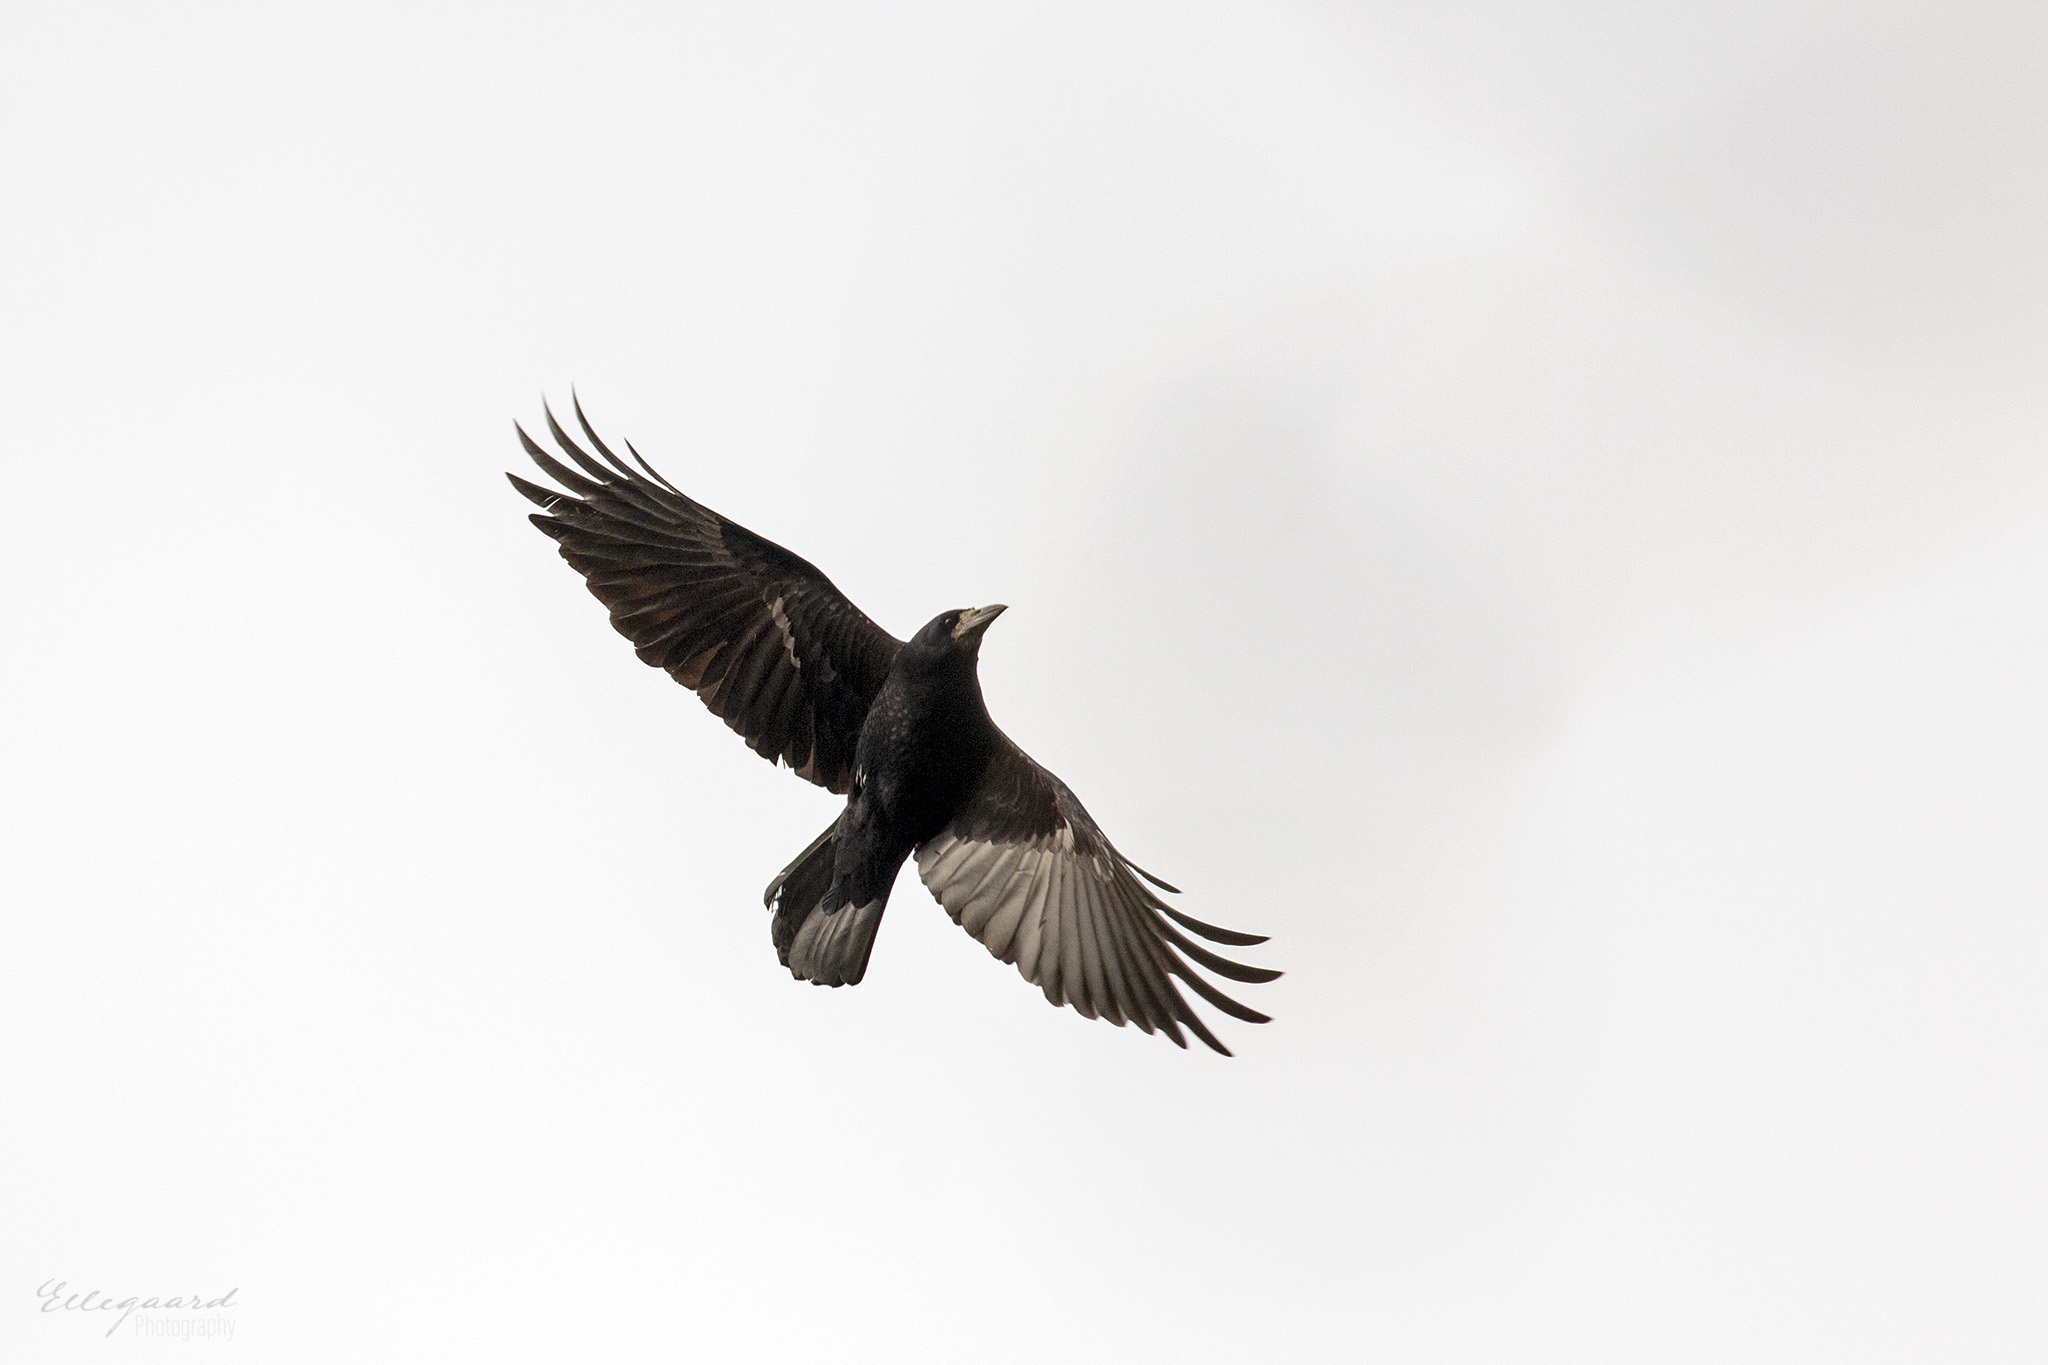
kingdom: Animalia
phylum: Chordata
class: Aves
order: Passeriformes
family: Corvidae
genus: Corvus
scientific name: Corvus frugilegus
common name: Rook
